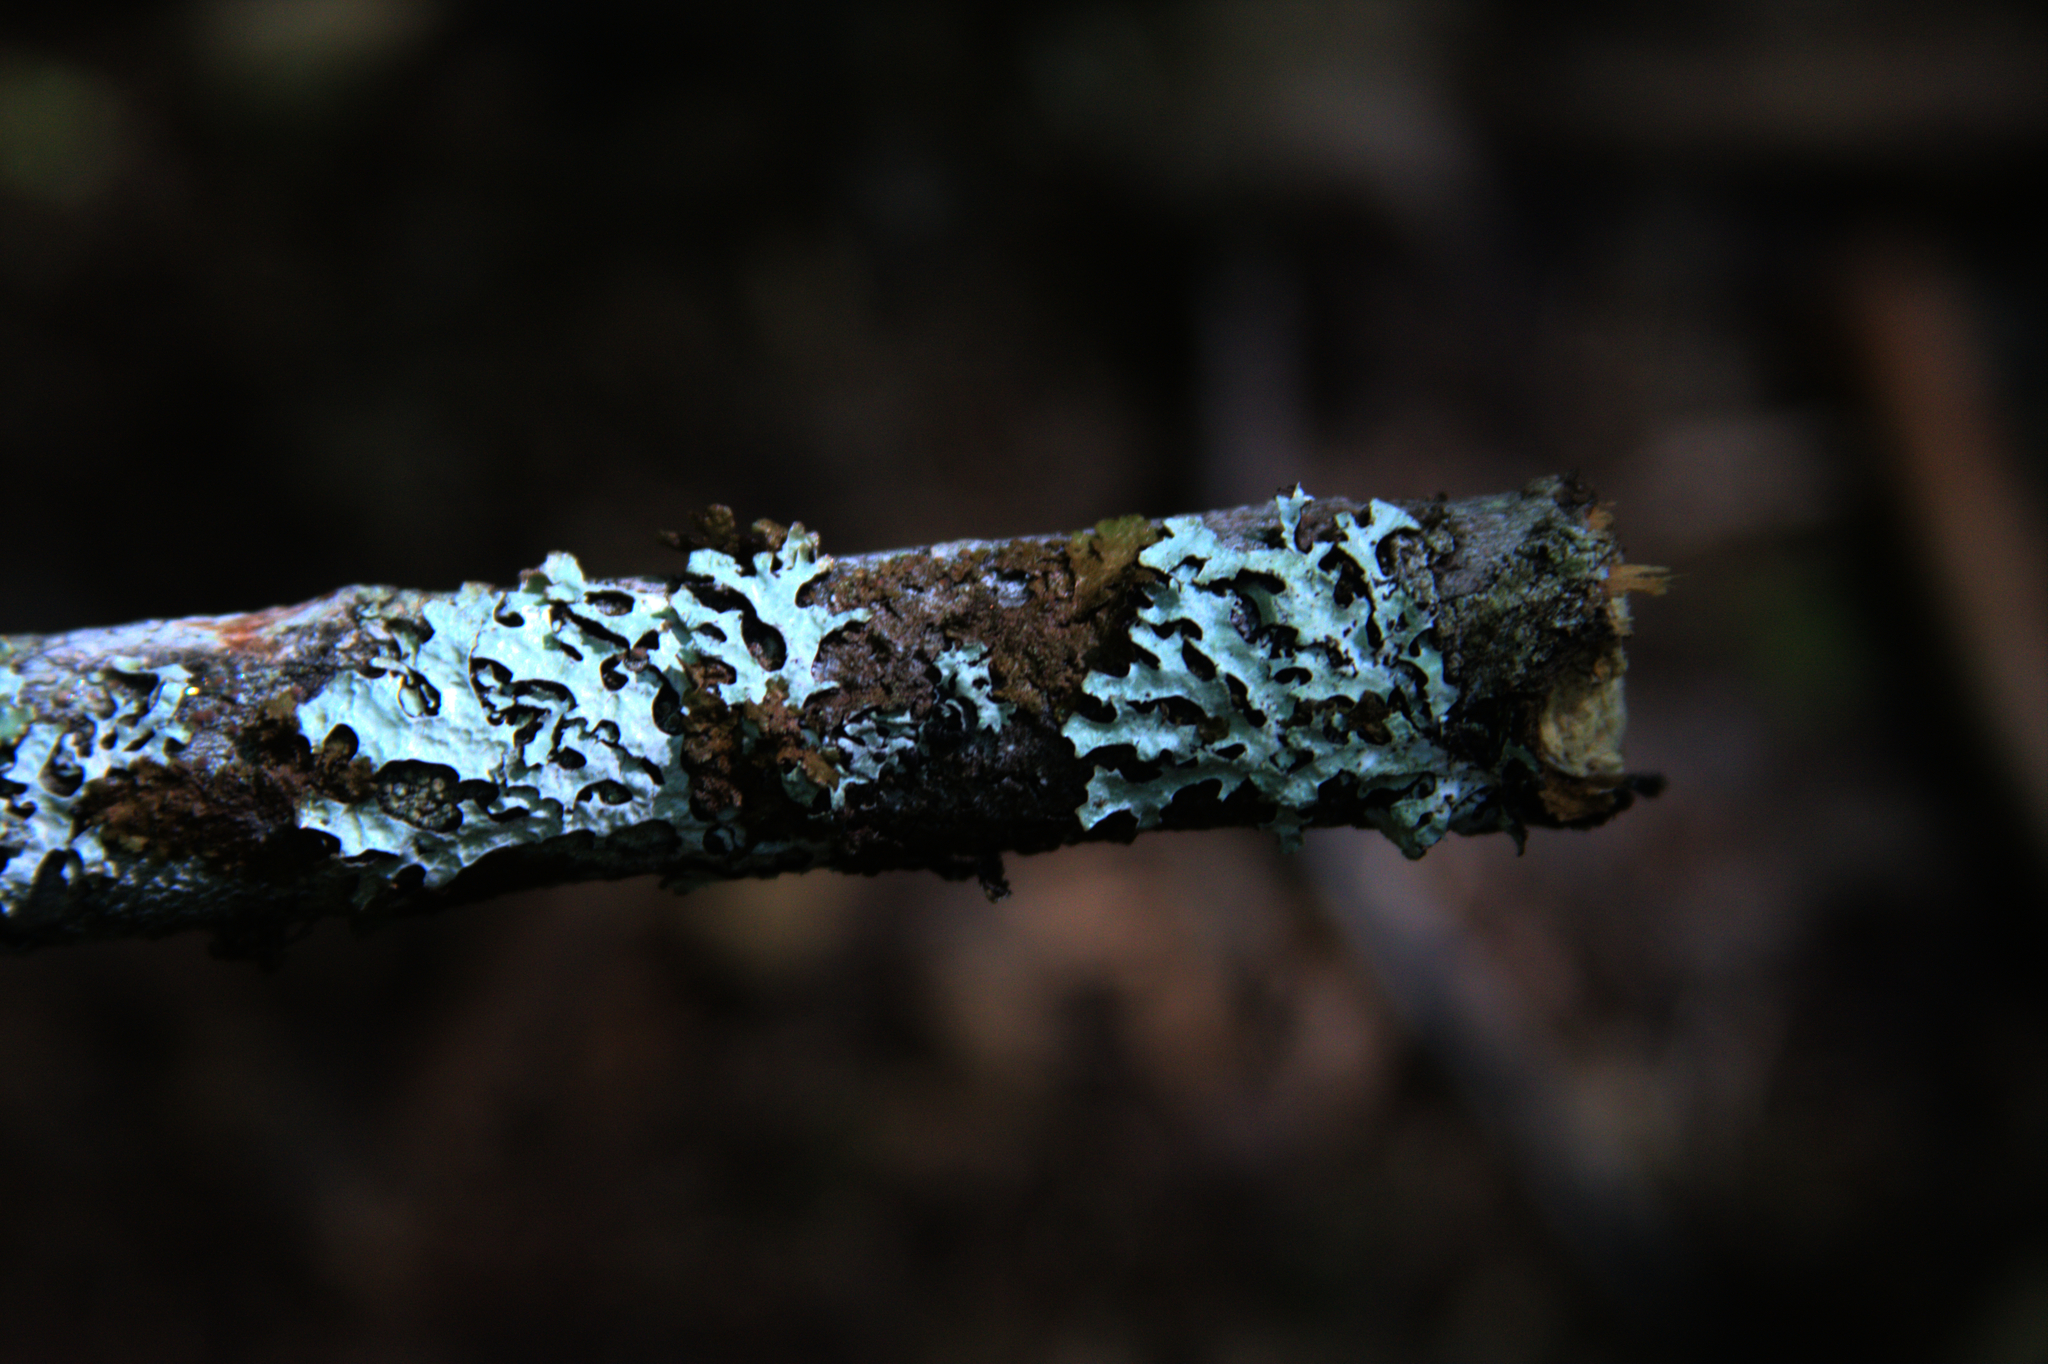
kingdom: Fungi
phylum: Ascomycota
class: Lecanoromycetes
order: Lecanorales
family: Parmeliaceae
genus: Parmelia
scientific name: Parmelia sulcata
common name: Netted shield lichen
